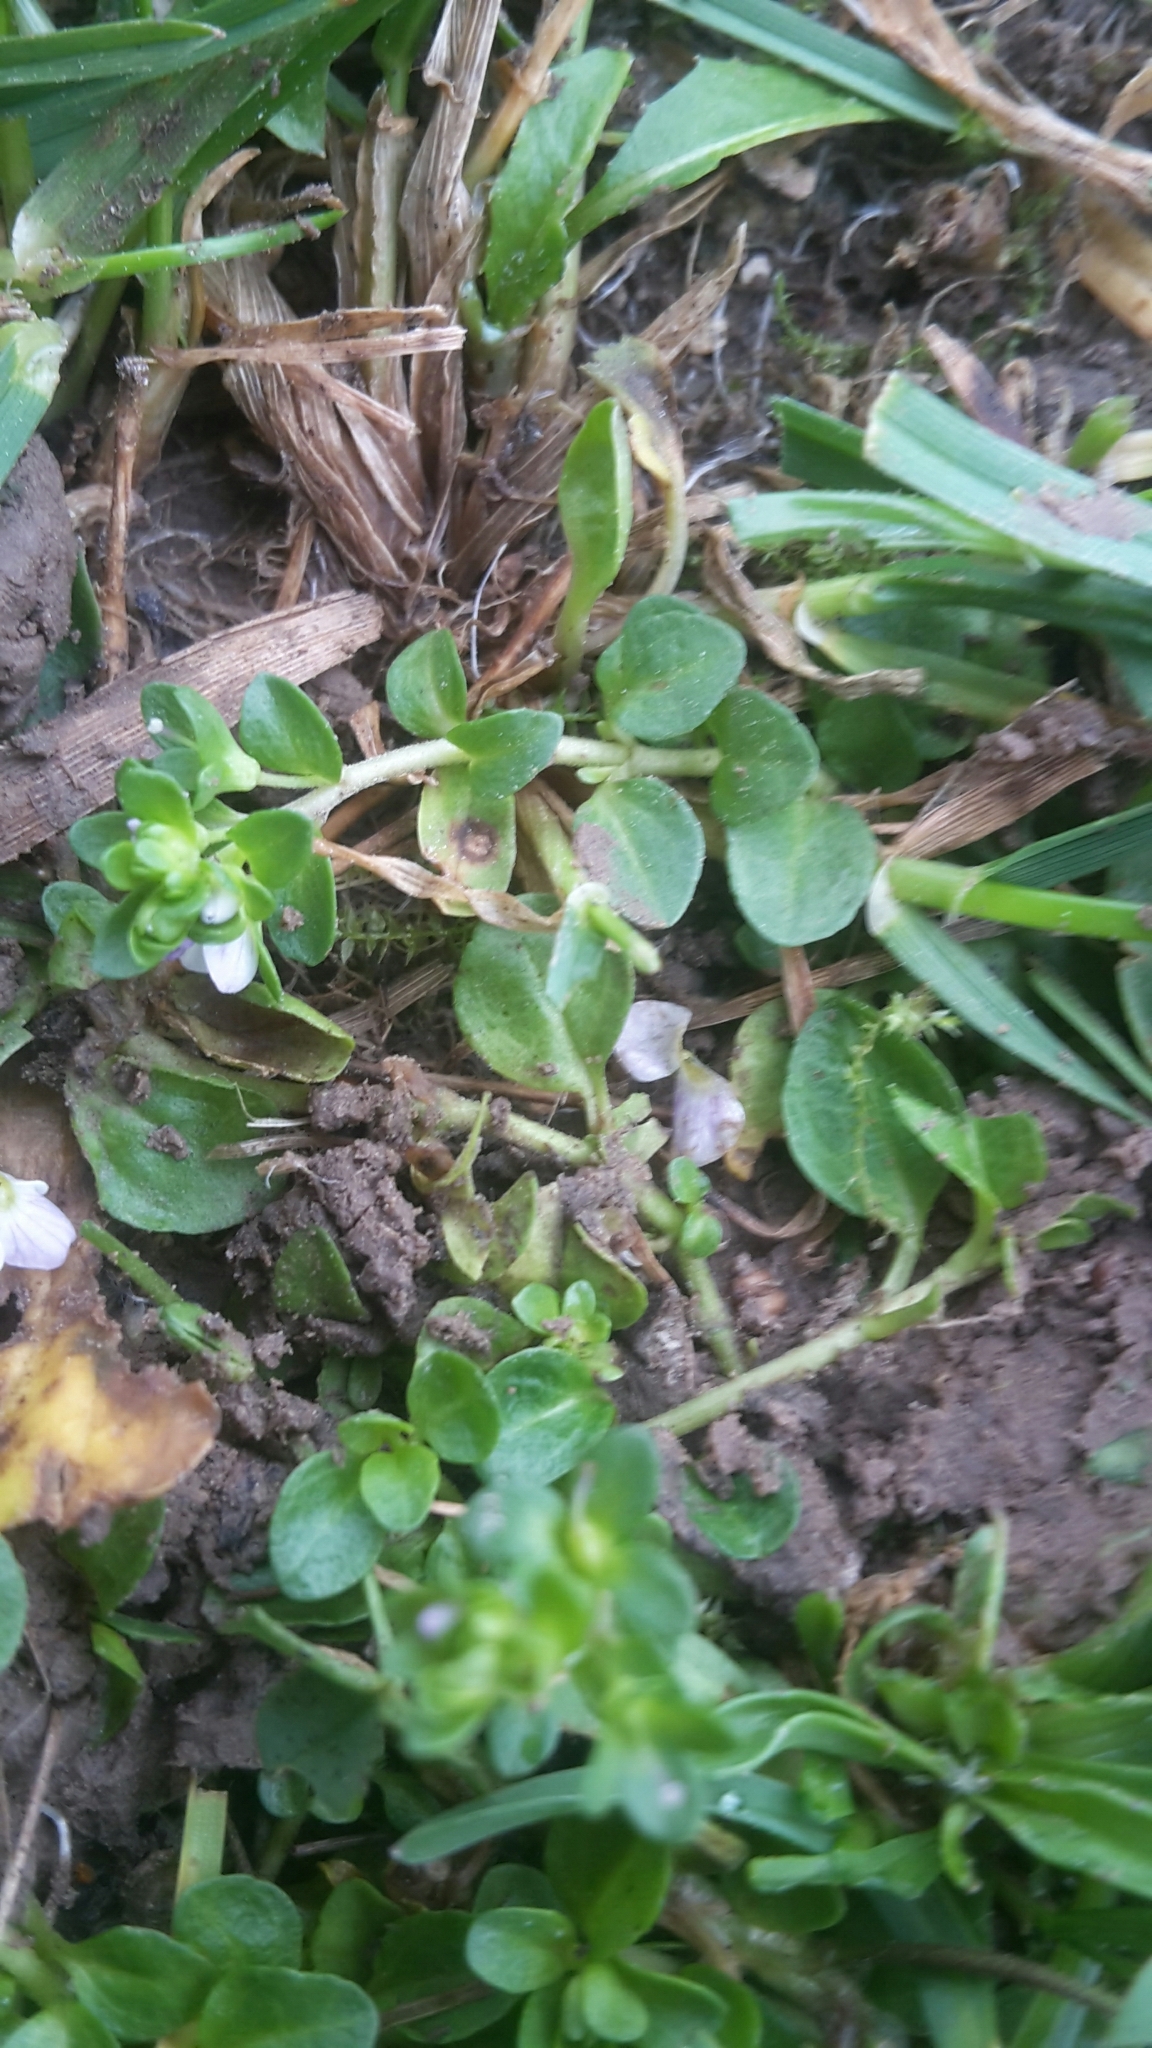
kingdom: Plantae
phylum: Tracheophyta
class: Magnoliopsida
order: Lamiales
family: Plantaginaceae
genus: Veronica
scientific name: Veronica serpyllifolia
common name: Thyme-leaved speedwell
